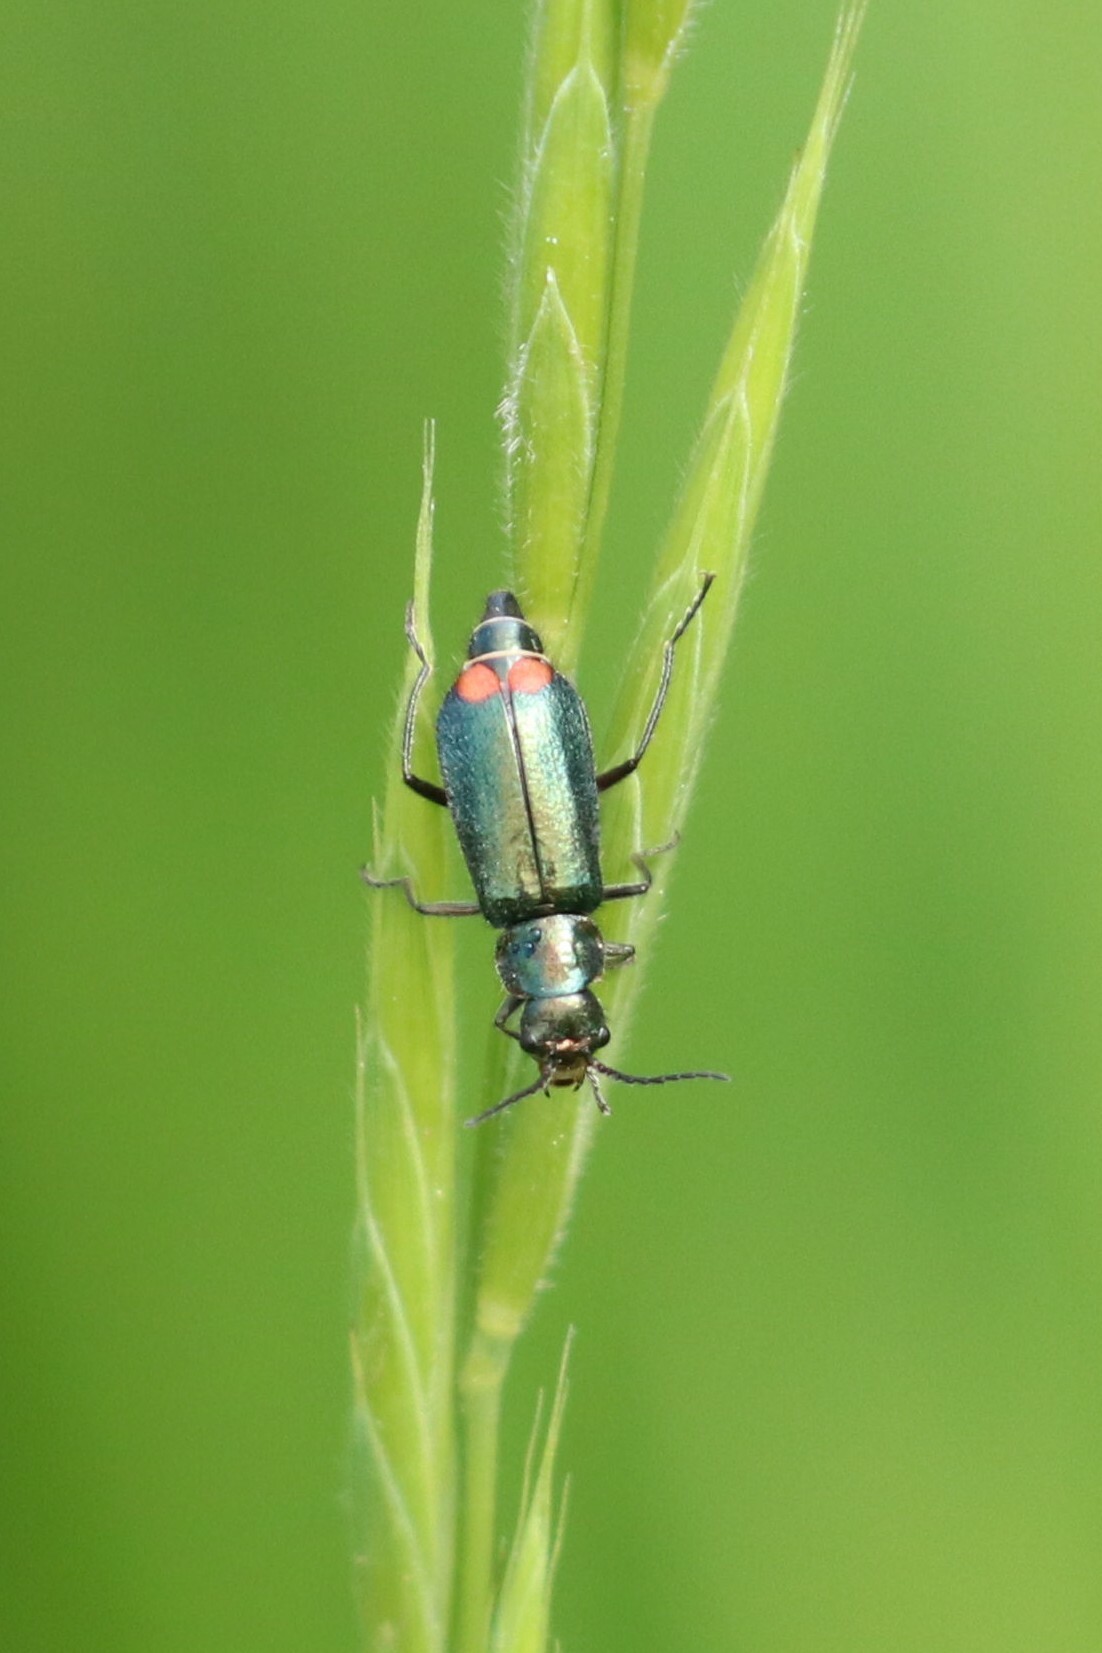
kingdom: Animalia
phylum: Arthropoda
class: Insecta
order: Coleoptera
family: Melyridae
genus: Malachius
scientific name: Malachius bipustulatus
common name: Malachite beetle
